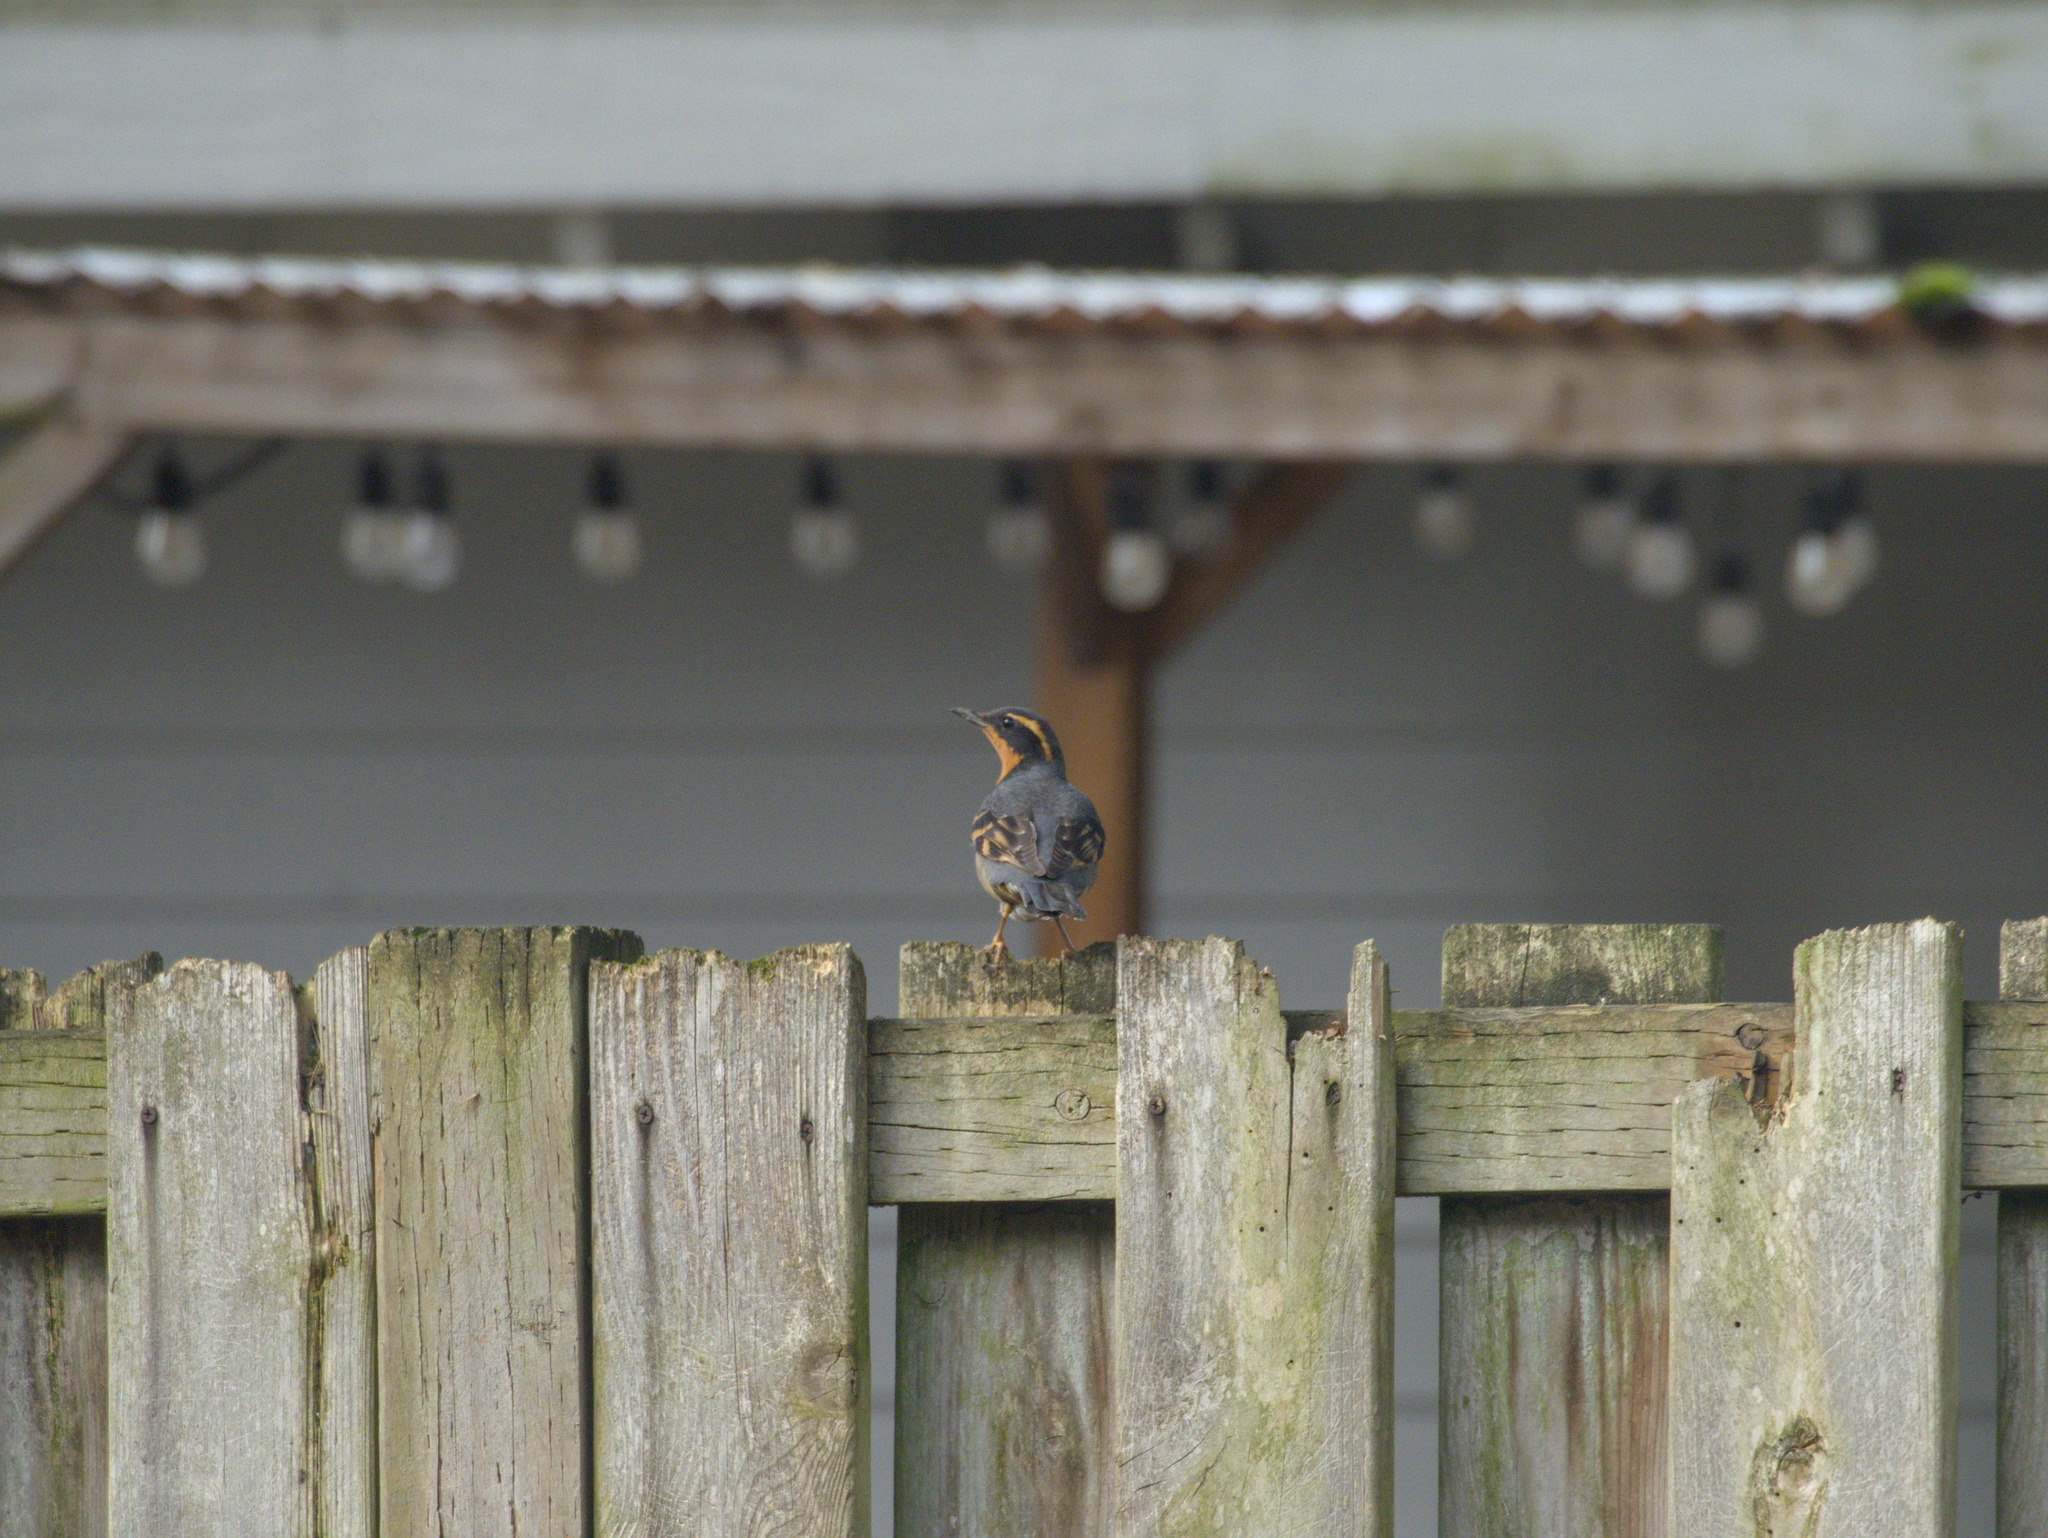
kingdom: Animalia
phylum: Chordata
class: Aves
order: Passeriformes
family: Turdidae
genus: Ixoreus
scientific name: Ixoreus naevius
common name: Varied thrush
